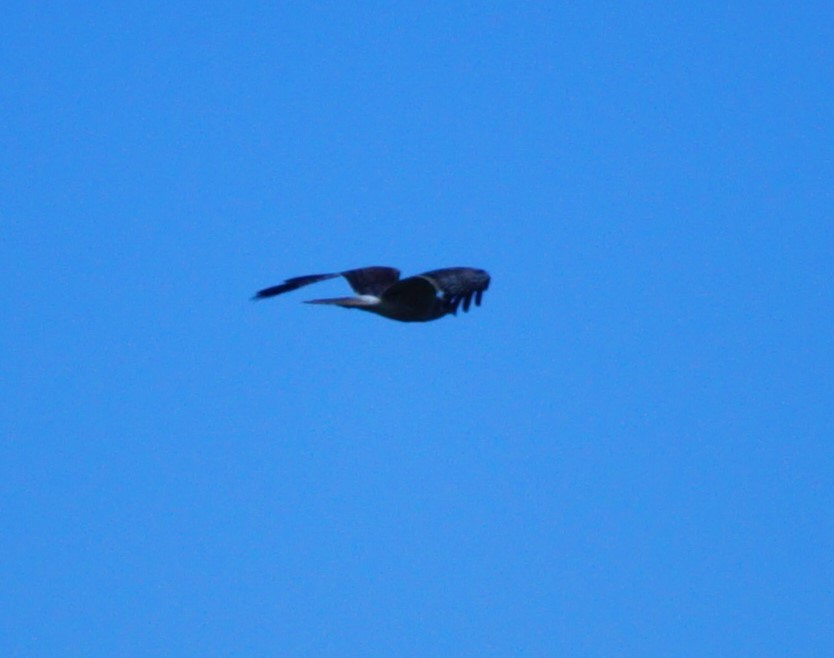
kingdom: Animalia
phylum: Chordata
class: Aves
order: Accipitriformes
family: Accipitridae
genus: Circus
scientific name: Circus approximans
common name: Swamp harrier
